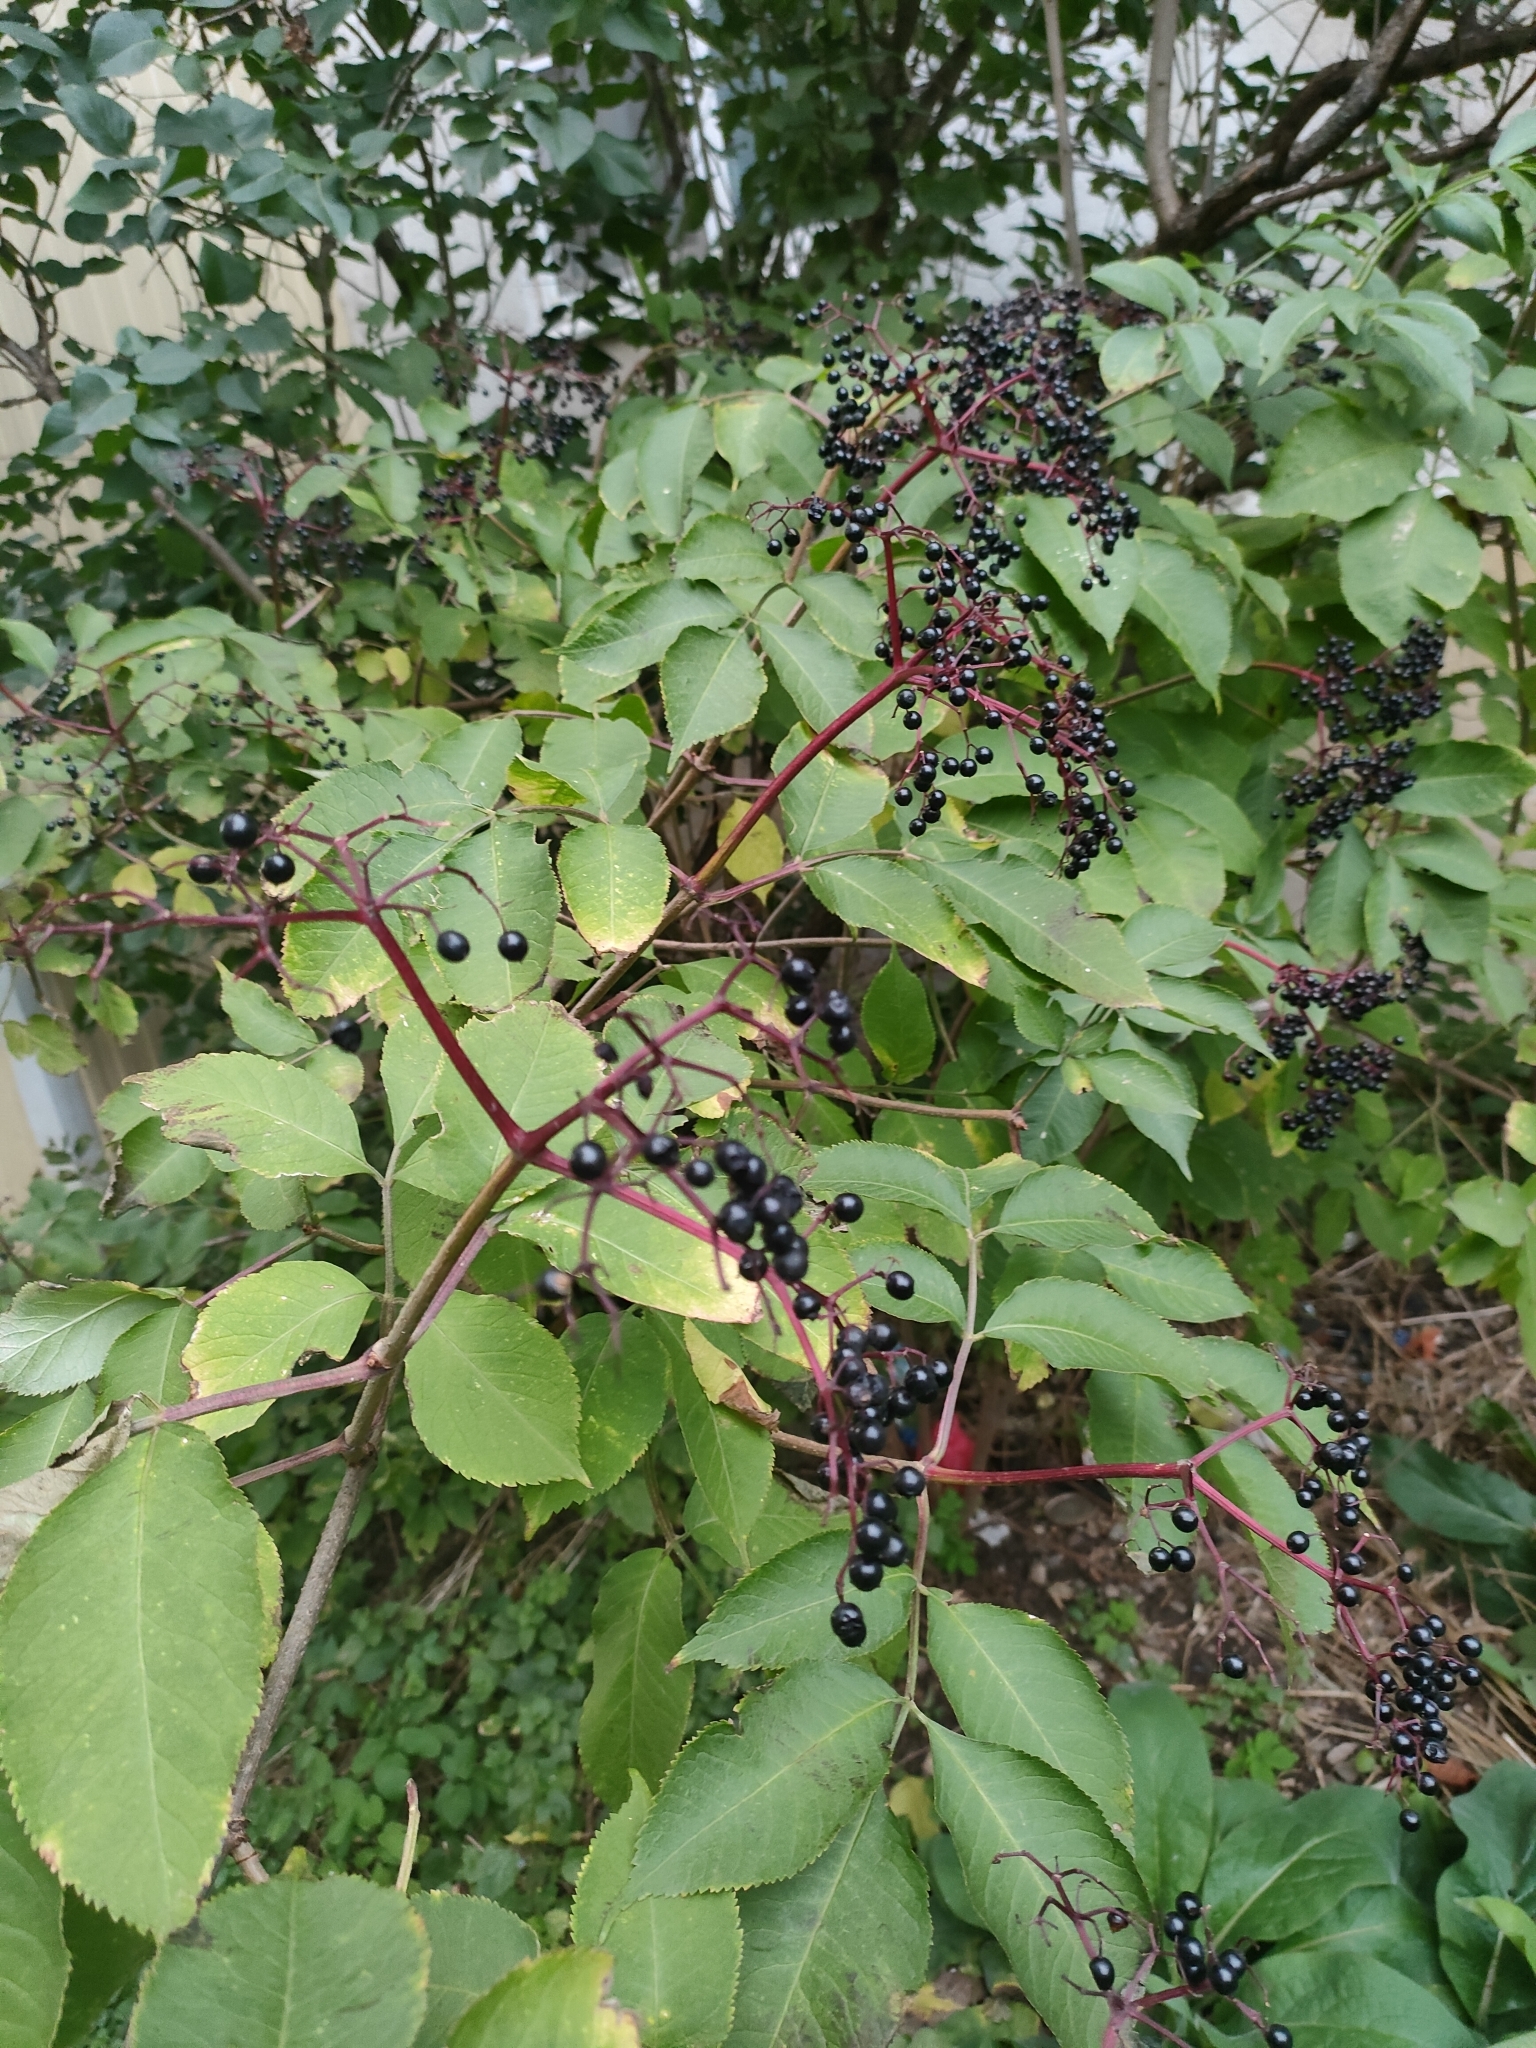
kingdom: Plantae
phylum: Tracheophyta
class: Magnoliopsida
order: Dipsacales
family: Viburnaceae
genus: Sambucus
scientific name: Sambucus nigra
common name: Elder
